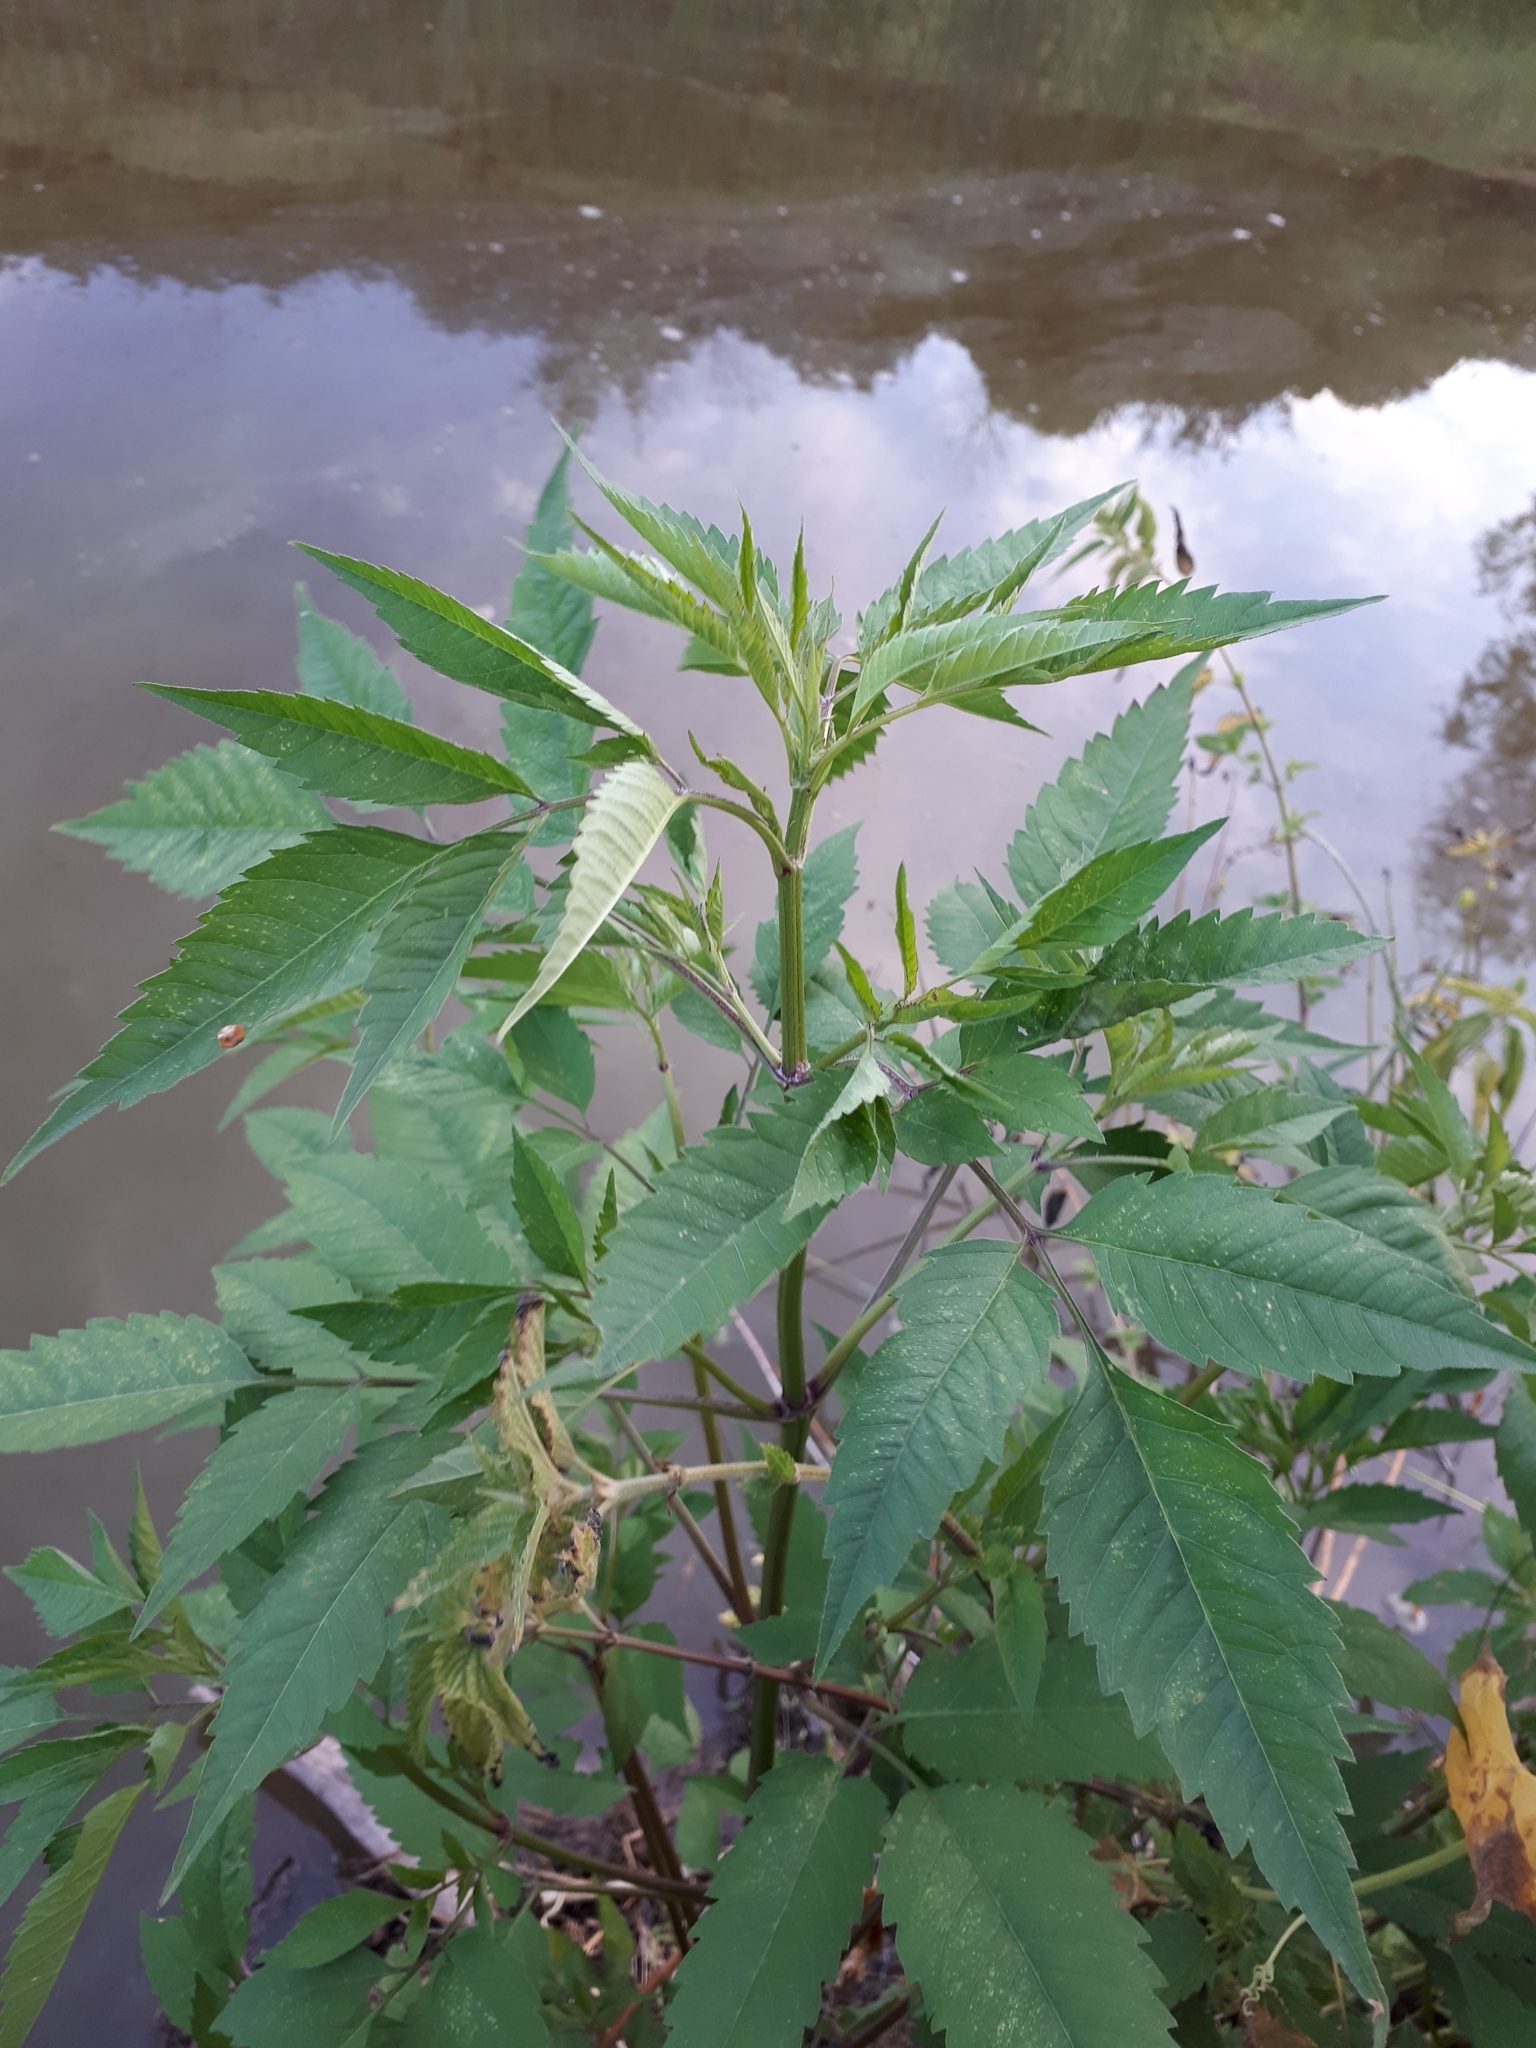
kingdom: Plantae
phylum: Tracheophyta
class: Magnoliopsida
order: Asterales
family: Asteraceae
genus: Bidens
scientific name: Bidens frondosa
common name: Beggarticks
